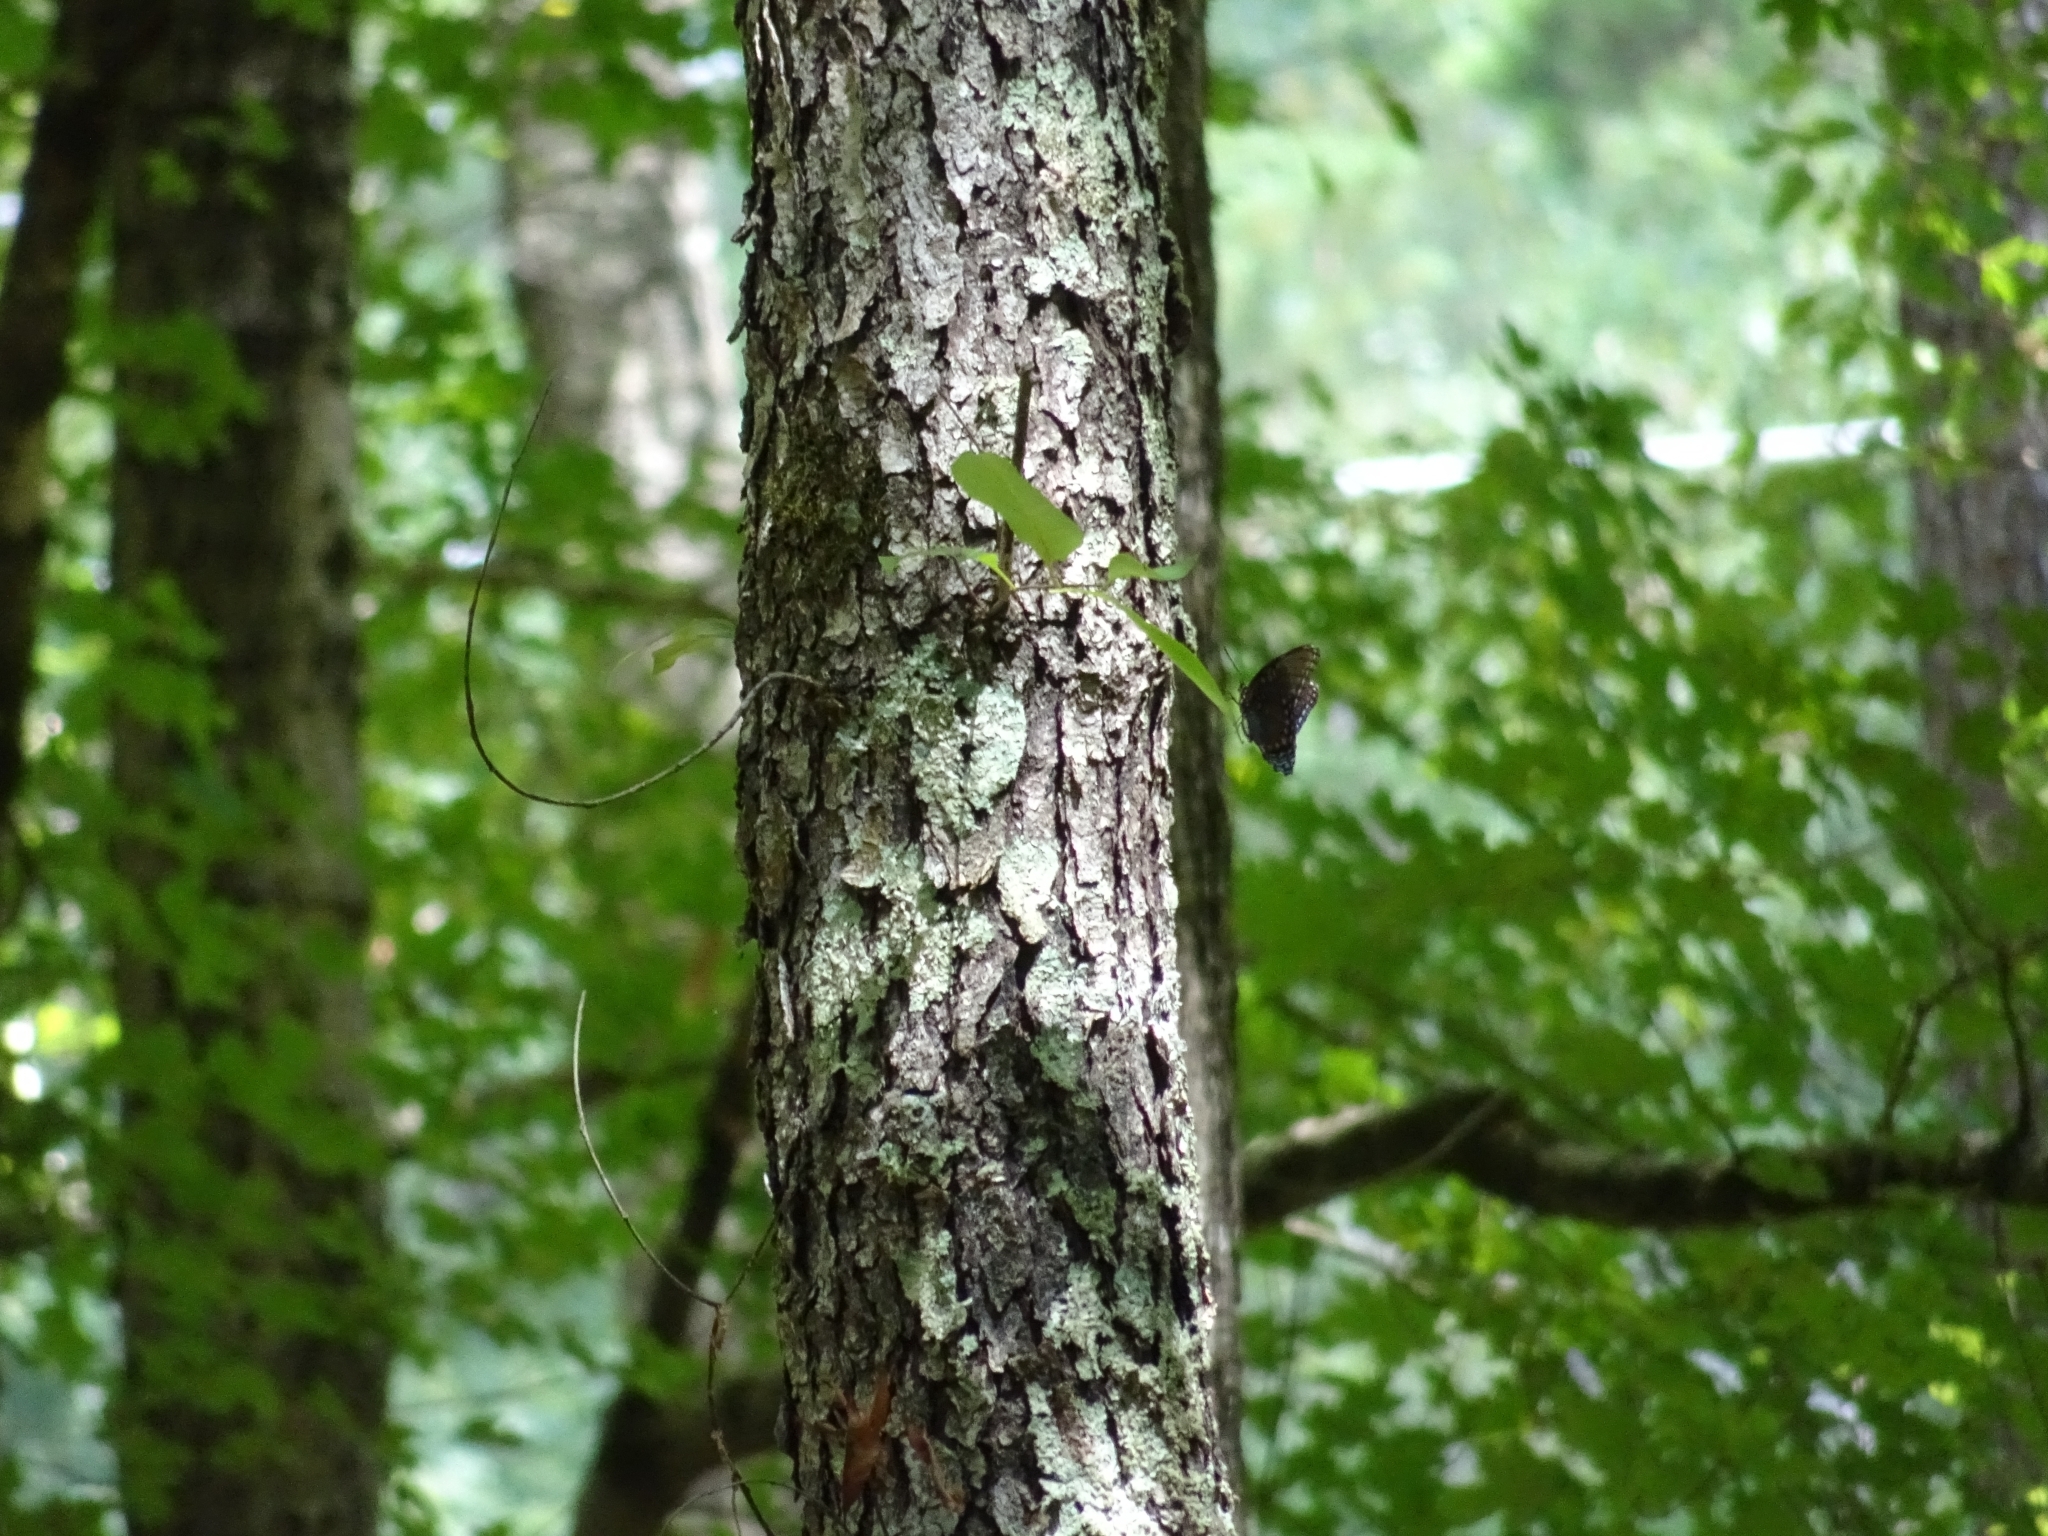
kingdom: Animalia
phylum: Arthropoda
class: Insecta
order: Lepidoptera
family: Nymphalidae
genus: Limenitis
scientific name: Limenitis arthemis
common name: Red-spotted admiral
